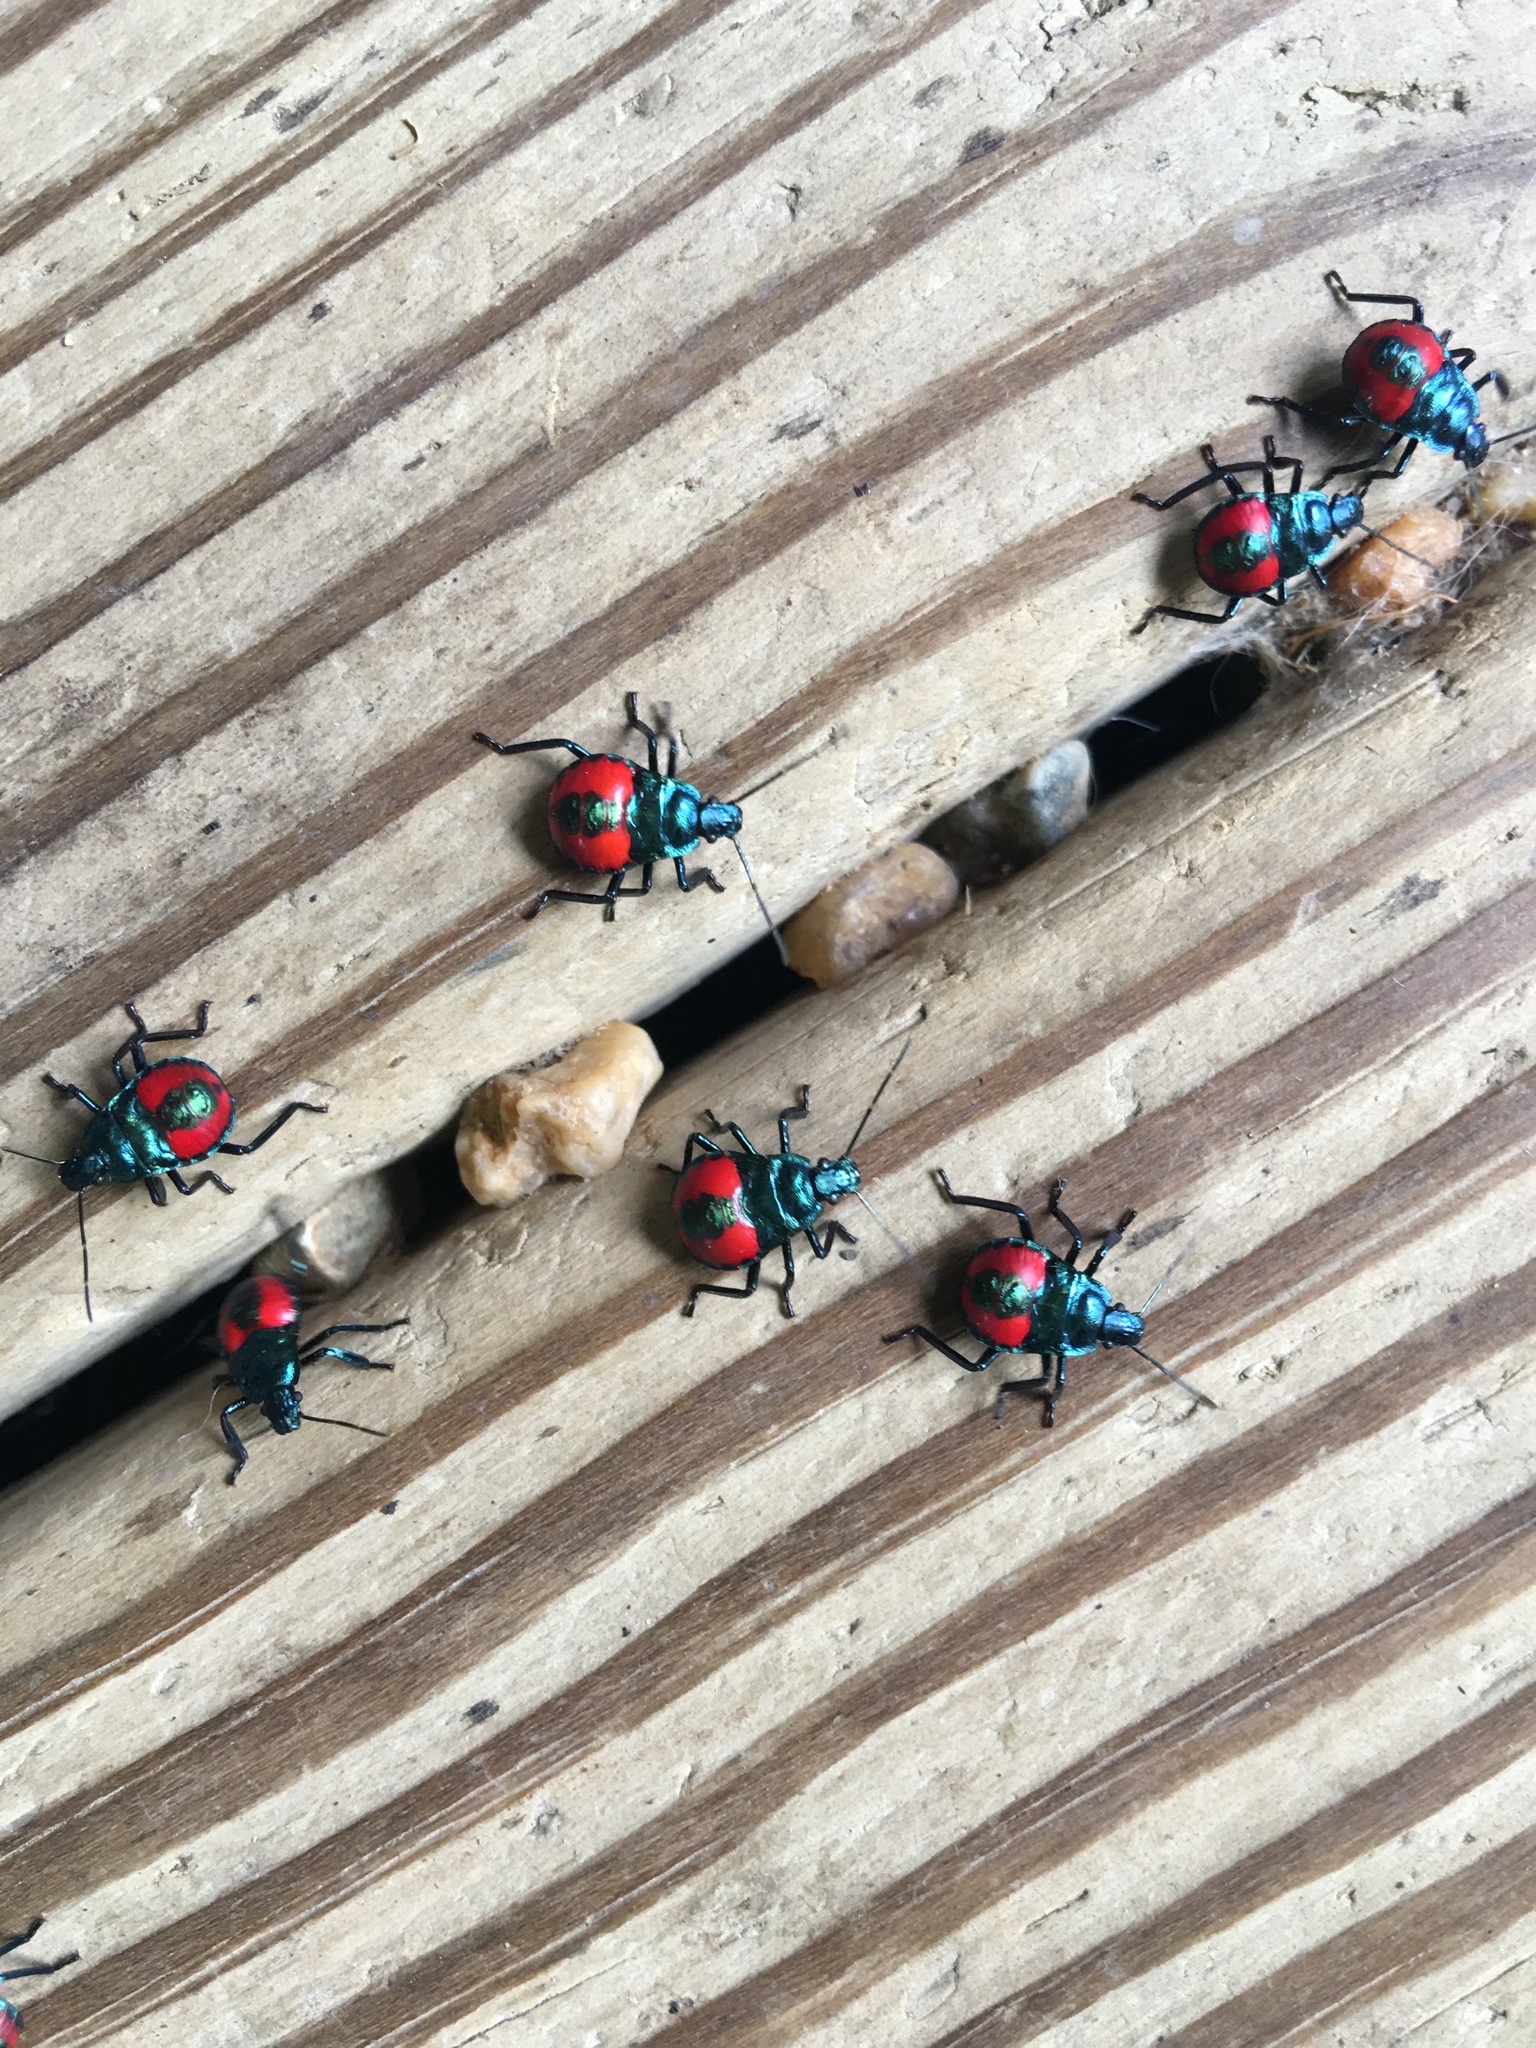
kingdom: Animalia
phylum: Arthropoda
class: Insecta
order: Hemiptera
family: Pentatomidae
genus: Euthyrhynchus
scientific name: Euthyrhynchus floridanus
